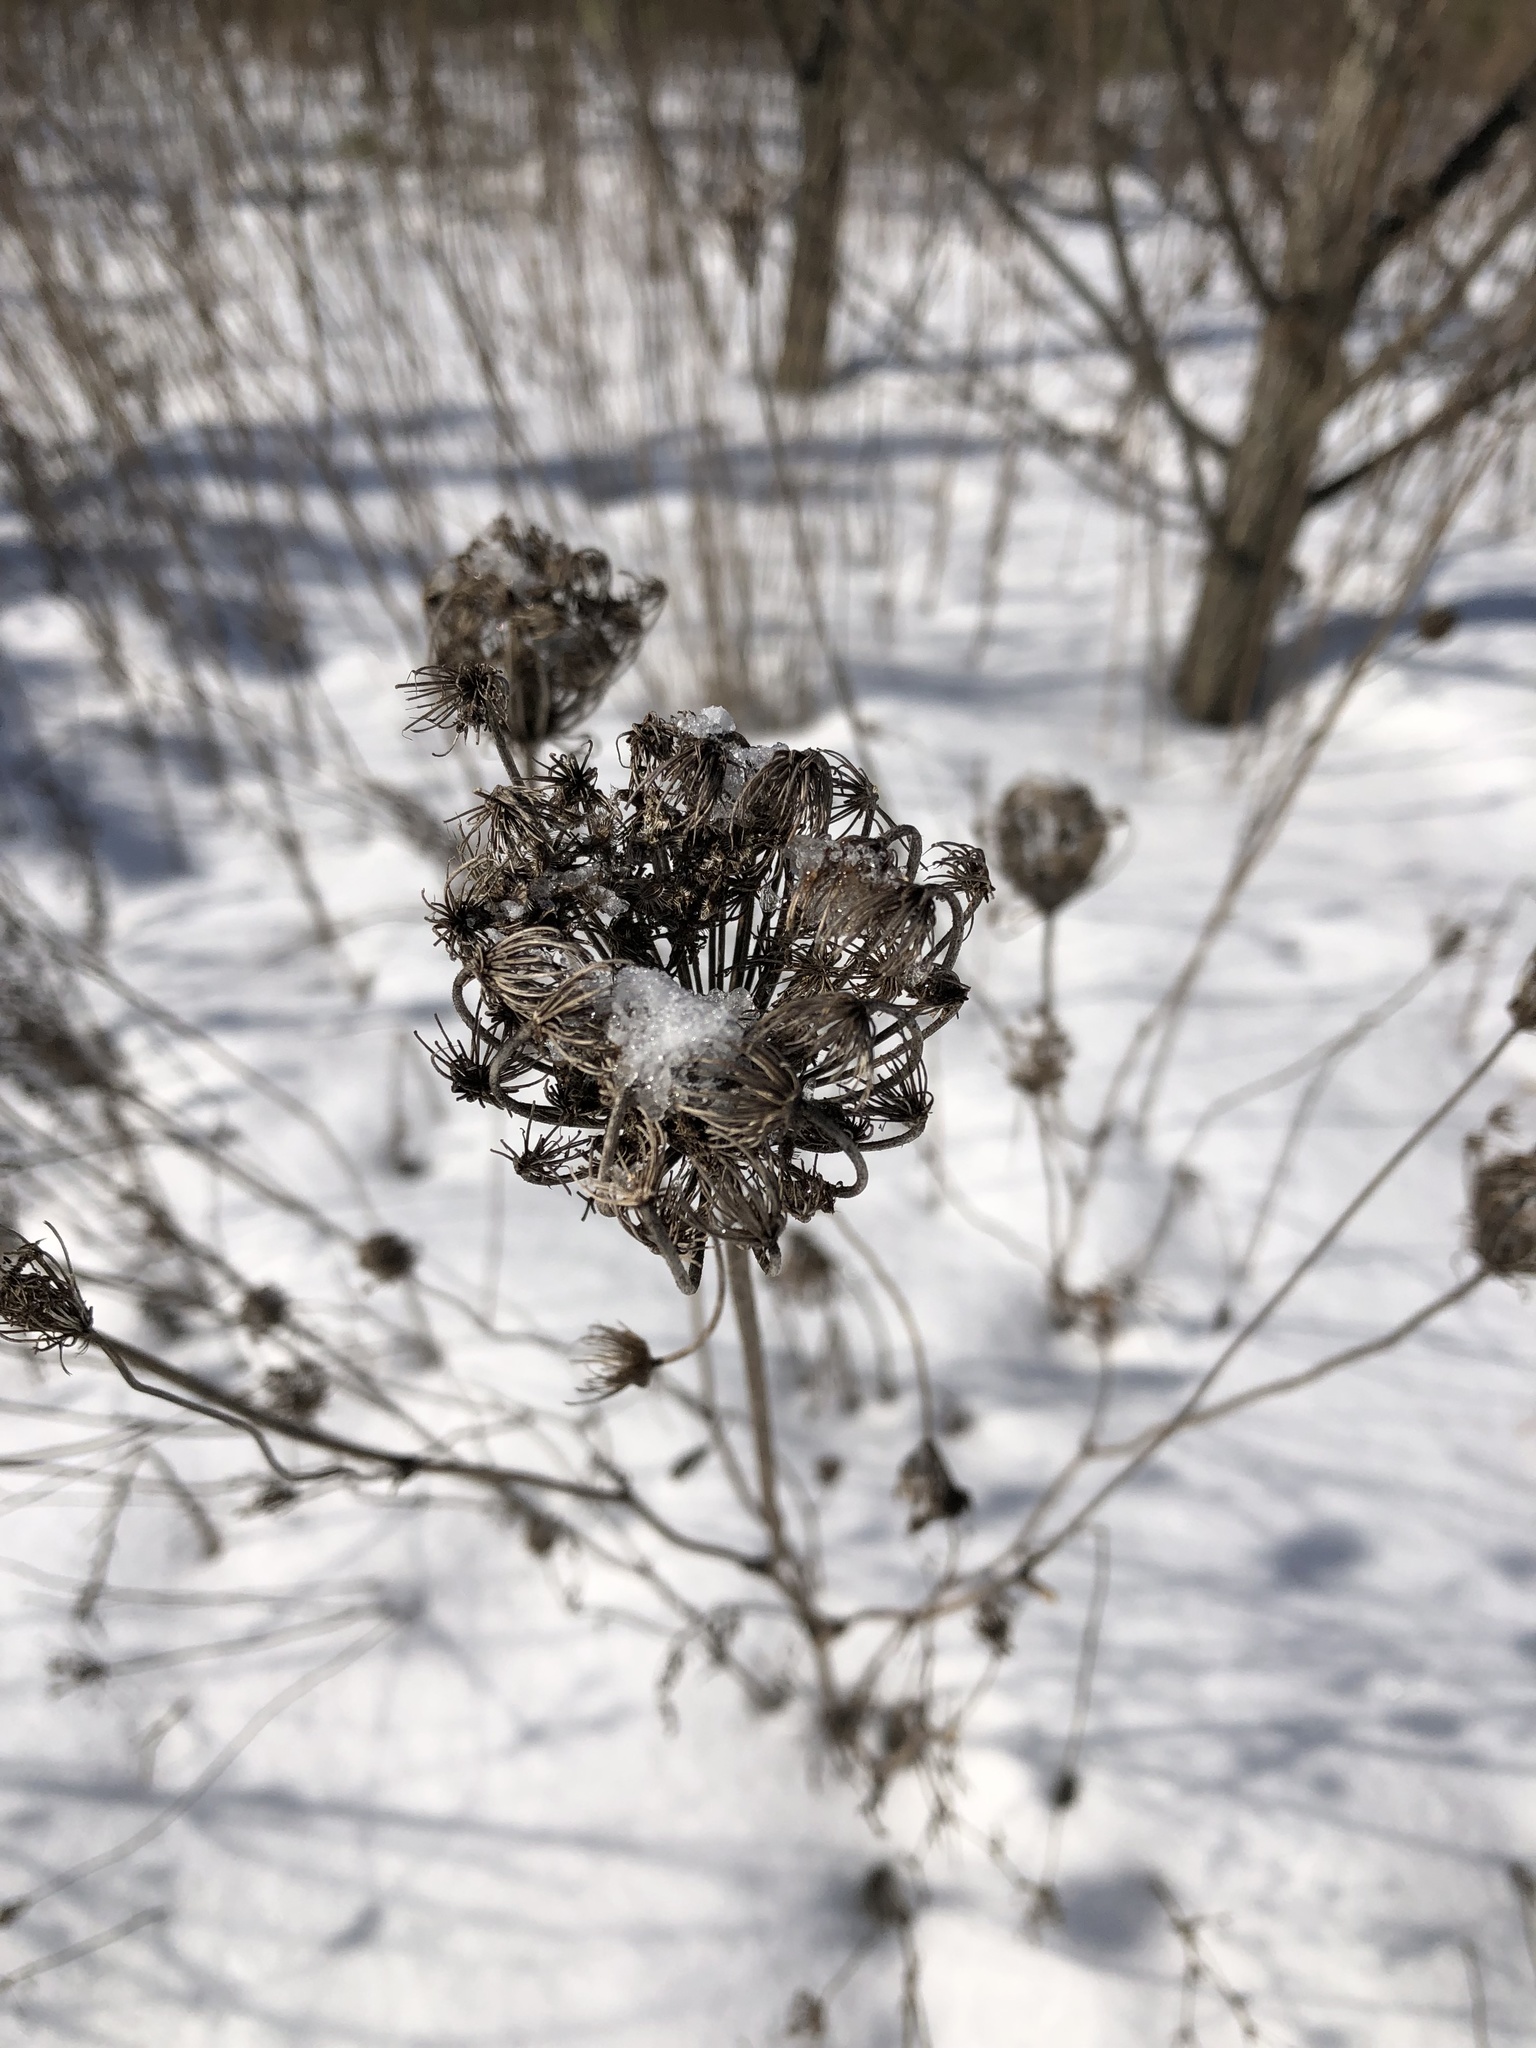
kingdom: Plantae
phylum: Tracheophyta
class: Magnoliopsida
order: Apiales
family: Apiaceae
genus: Daucus
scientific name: Daucus carota
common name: Wild carrot
